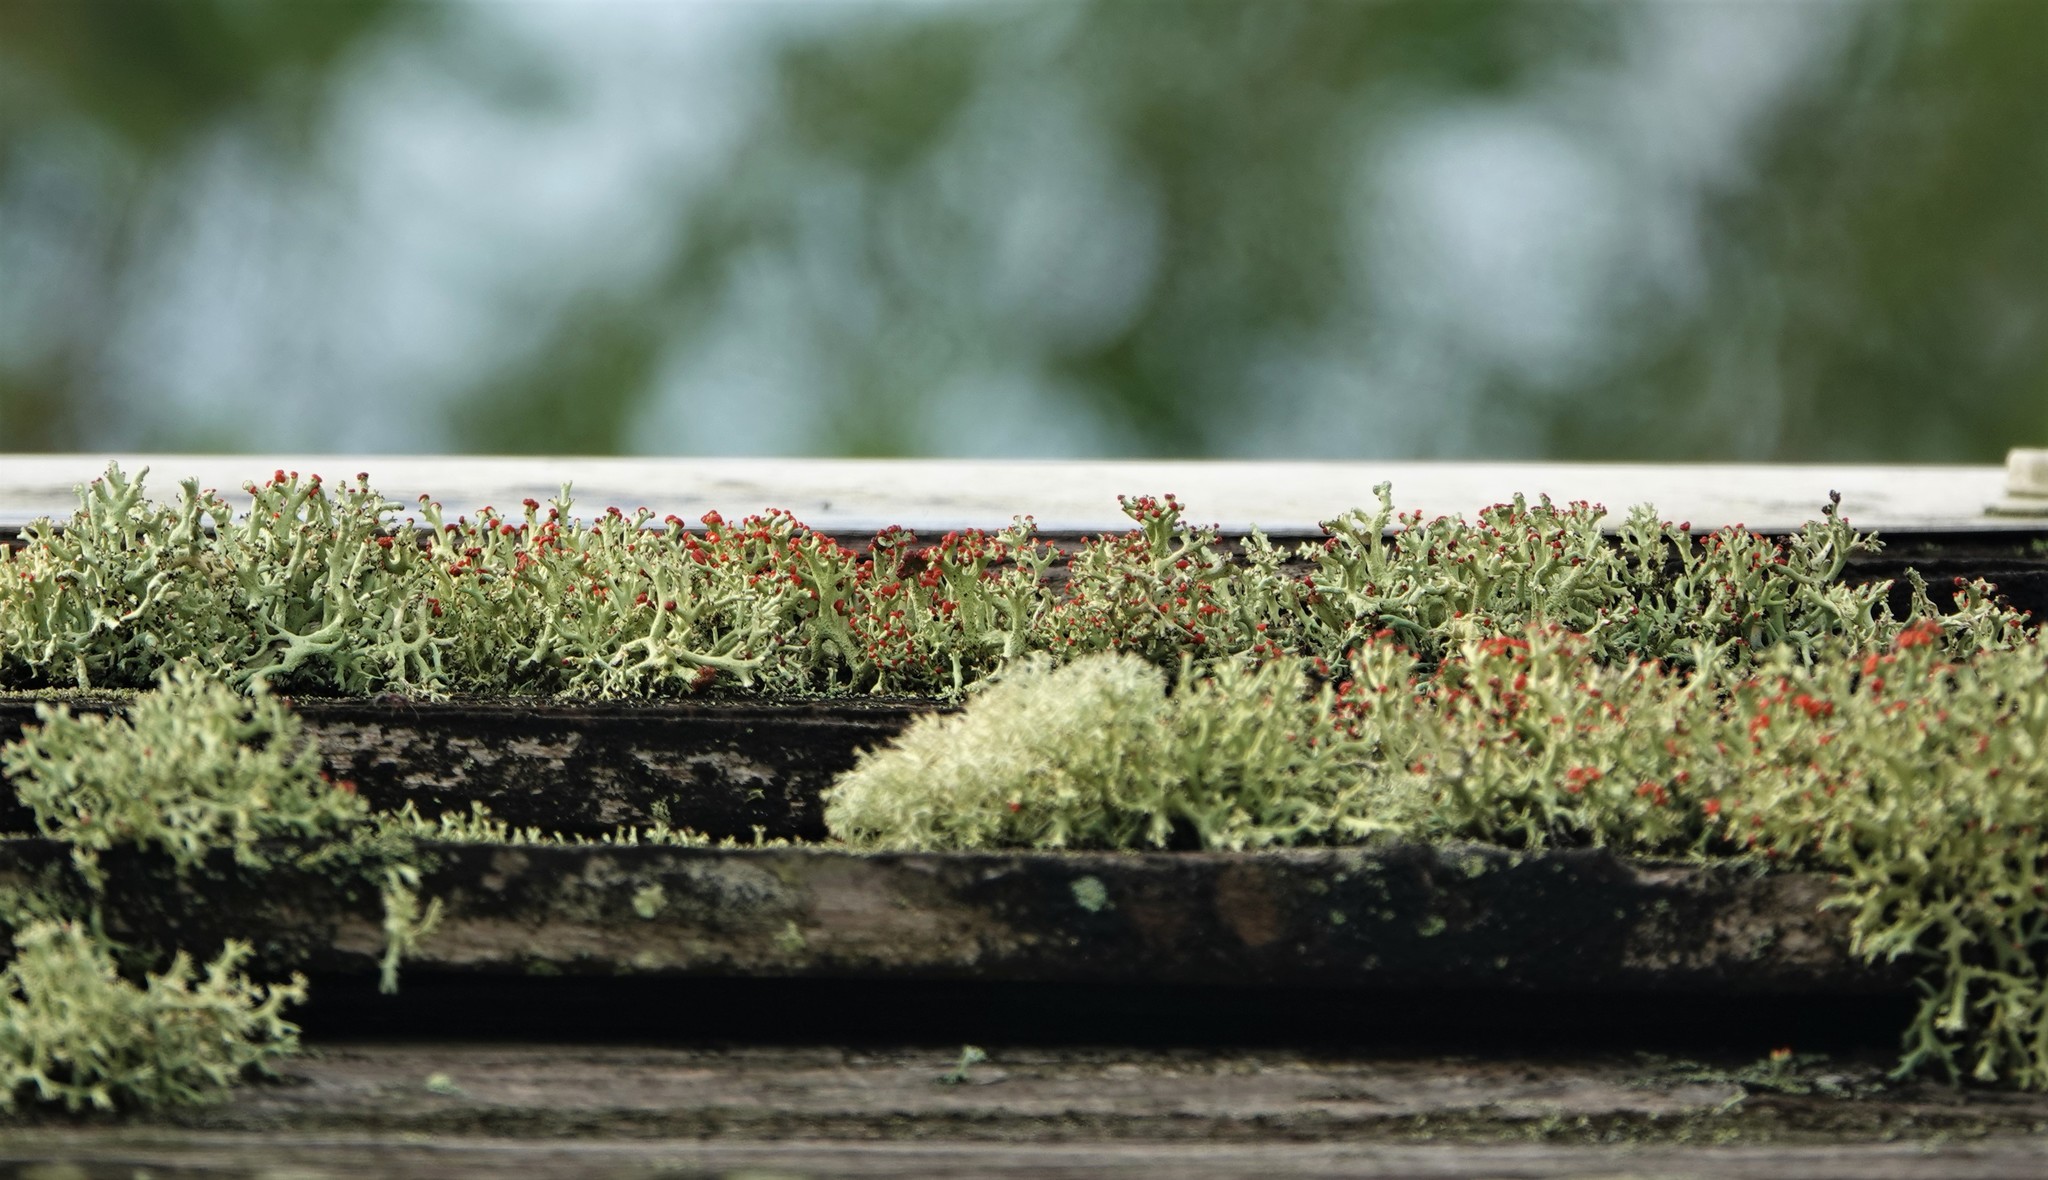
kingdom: Fungi
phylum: Ascomycota
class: Lecanoromycetes
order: Lecanorales
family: Cladoniaceae
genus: Cladonia
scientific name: Cladonia leporina
